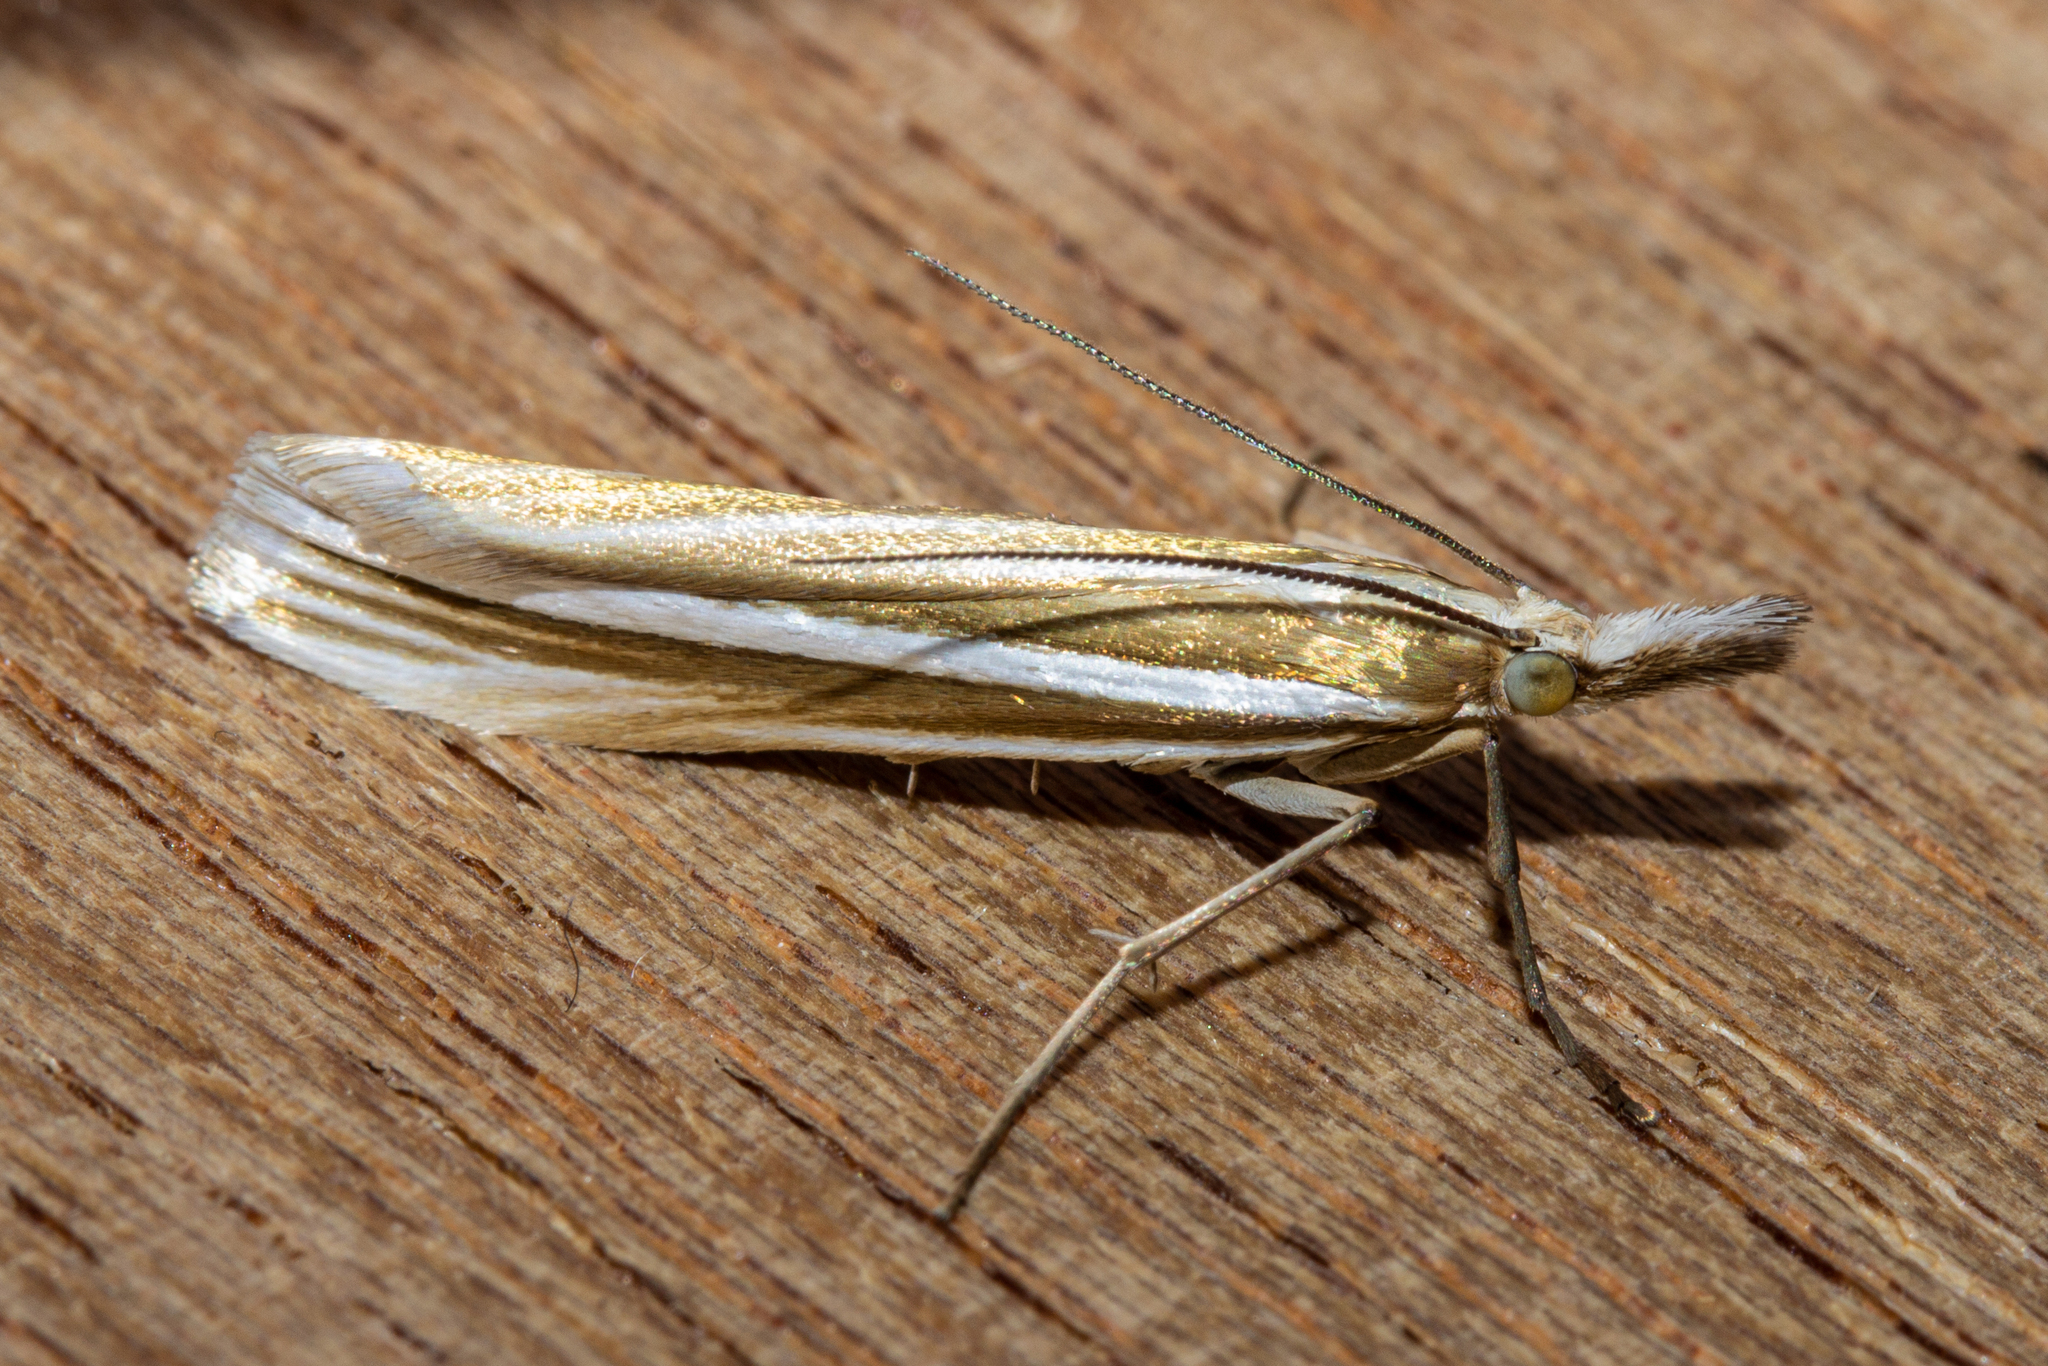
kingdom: Animalia
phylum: Arthropoda
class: Insecta
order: Lepidoptera
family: Crambidae
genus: Orocrambus
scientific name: Orocrambus lewisi
